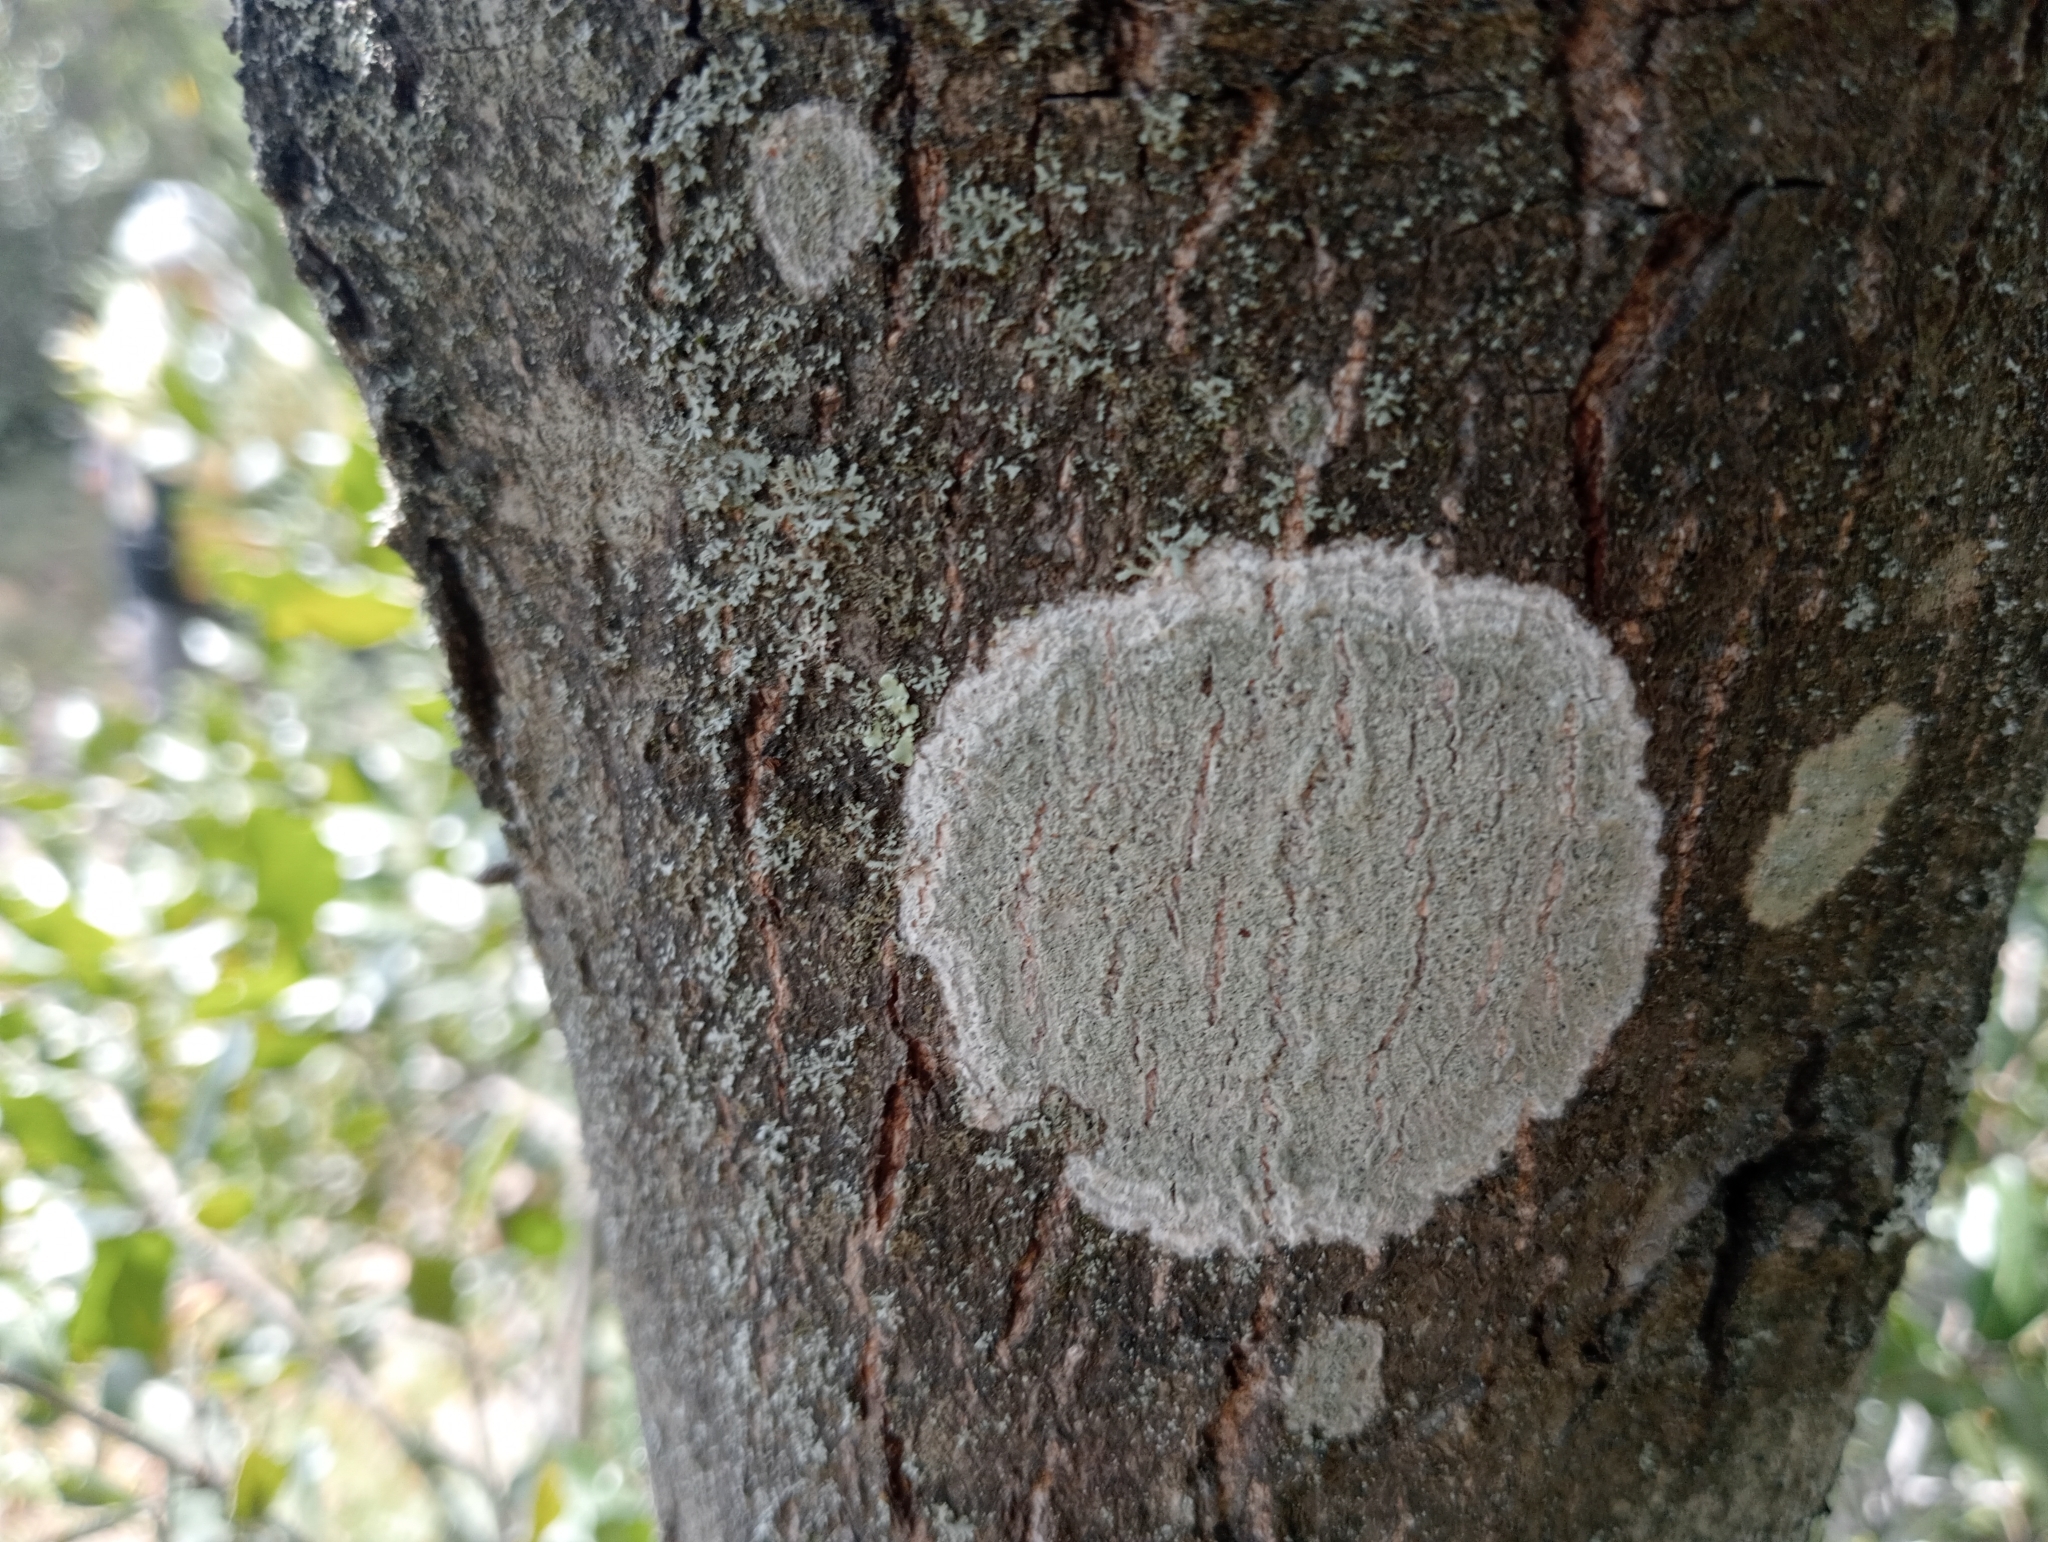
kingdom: Fungi
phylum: Ascomycota
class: Lecanoromycetes
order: Ostropales
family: Phlyctidaceae
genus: Phlyctis
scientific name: Phlyctis argena
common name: Whitewash lichen
